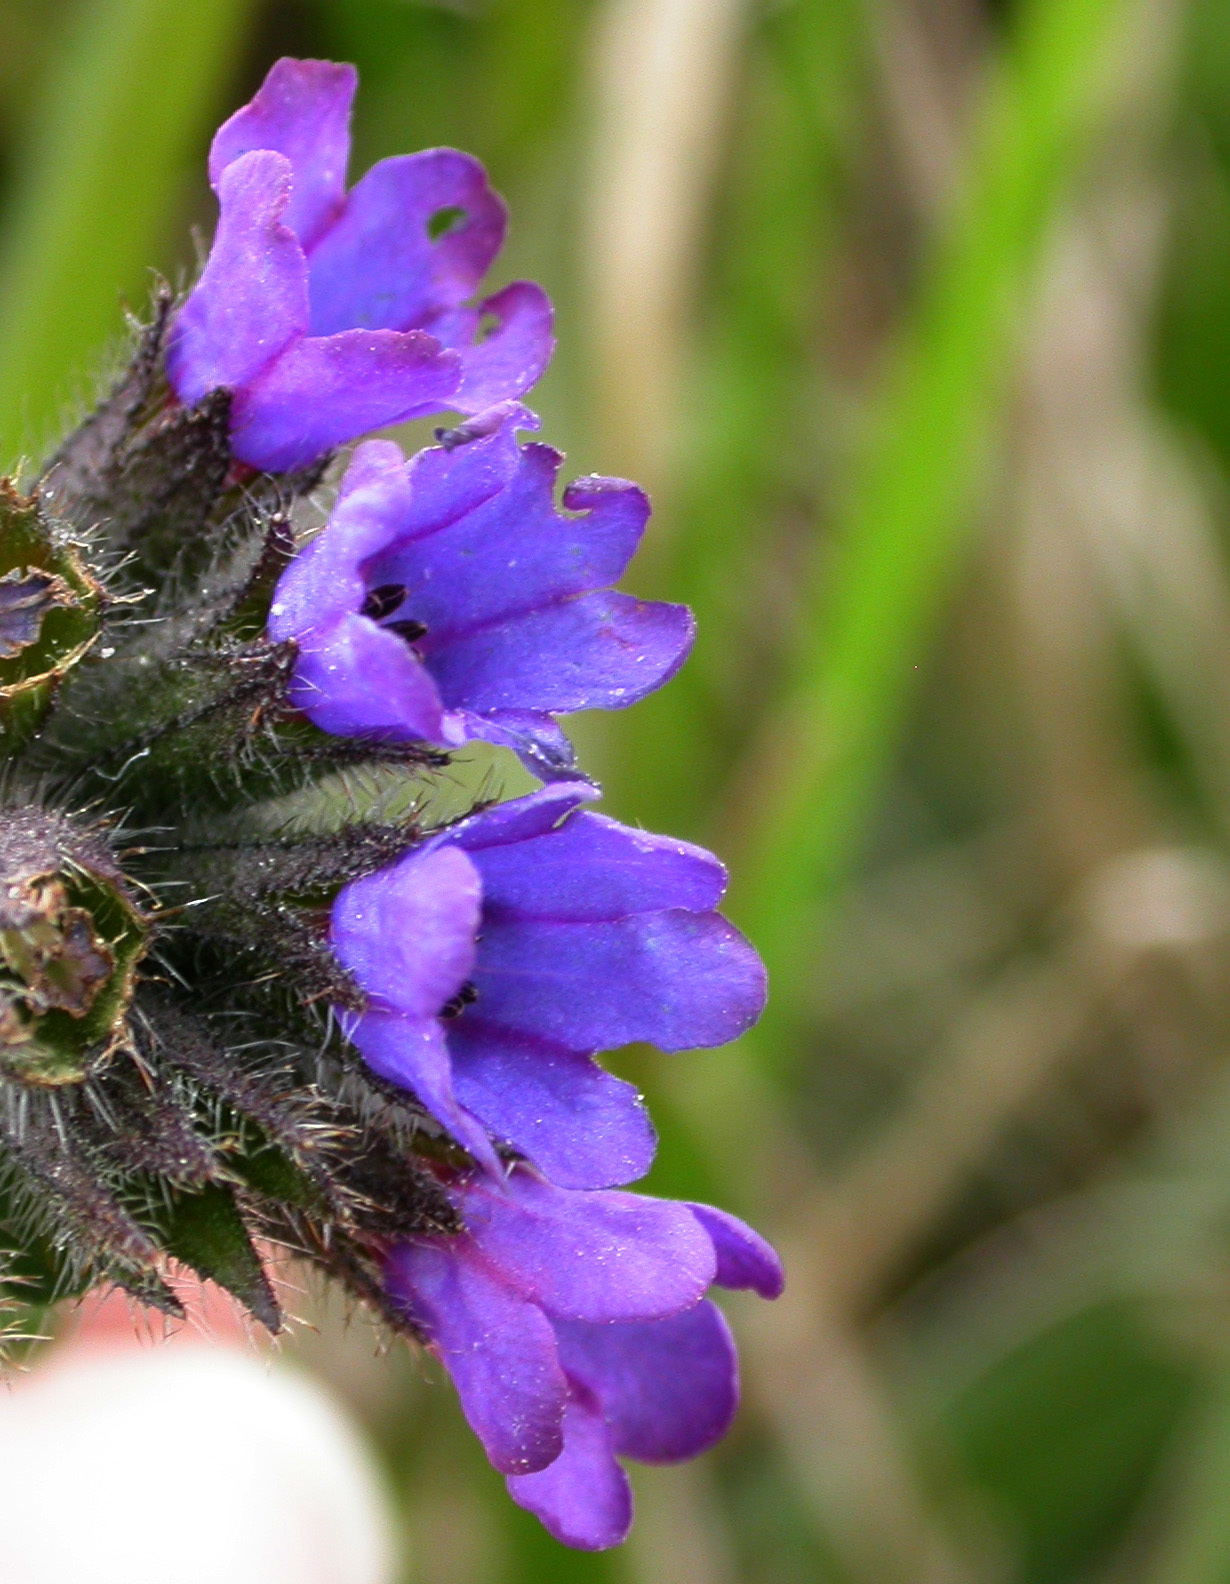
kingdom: Plantae
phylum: Tracheophyta
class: Magnoliopsida
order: Boraginales
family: Boraginaceae
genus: Pulmonaria
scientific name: Pulmonaria longifolia
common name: Narrow-leaved lungwort
